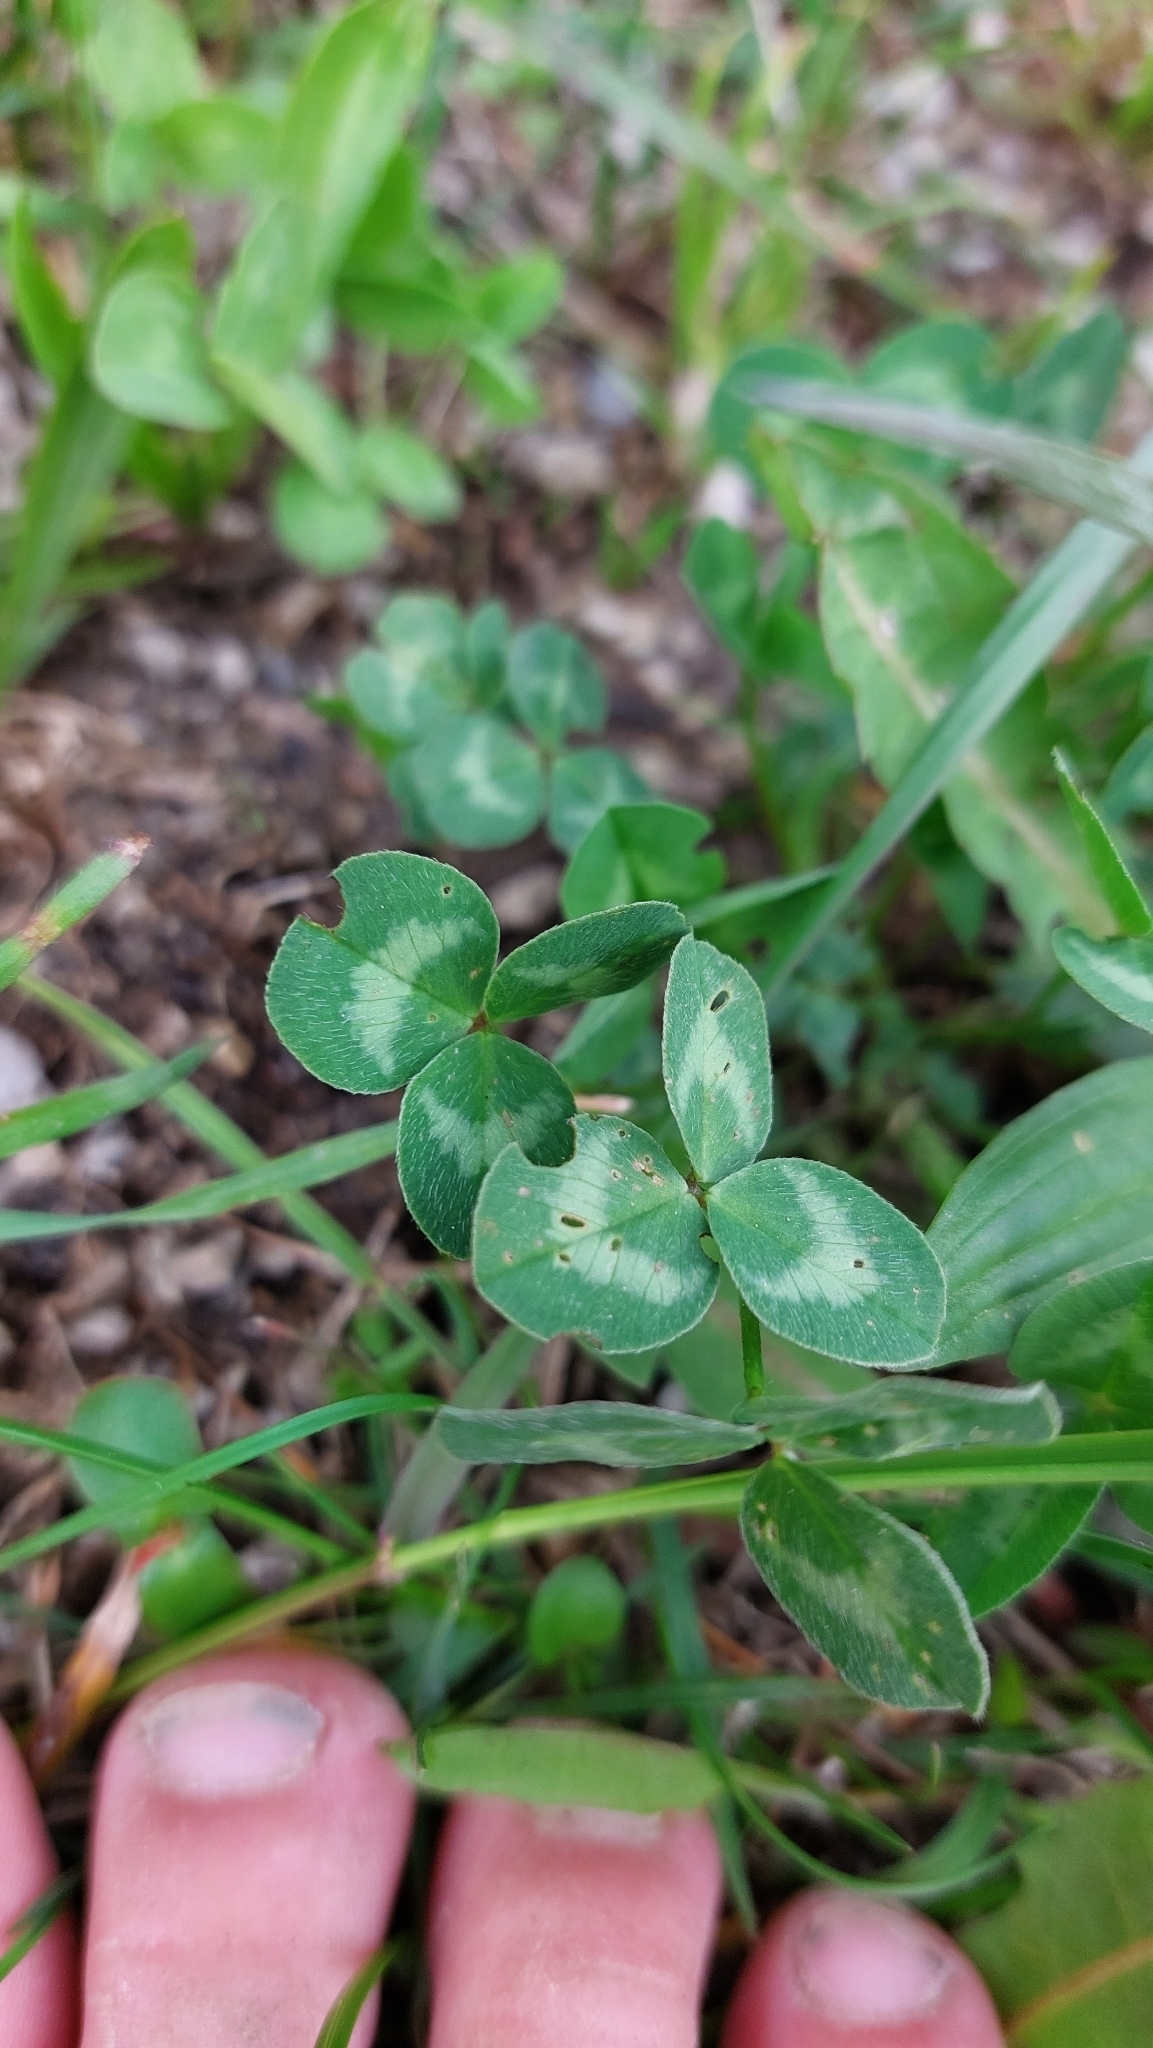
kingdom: Plantae
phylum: Tracheophyta
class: Magnoliopsida
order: Fabales
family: Fabaceae
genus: Trifolium
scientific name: Trifolium pratense
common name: Red clover
